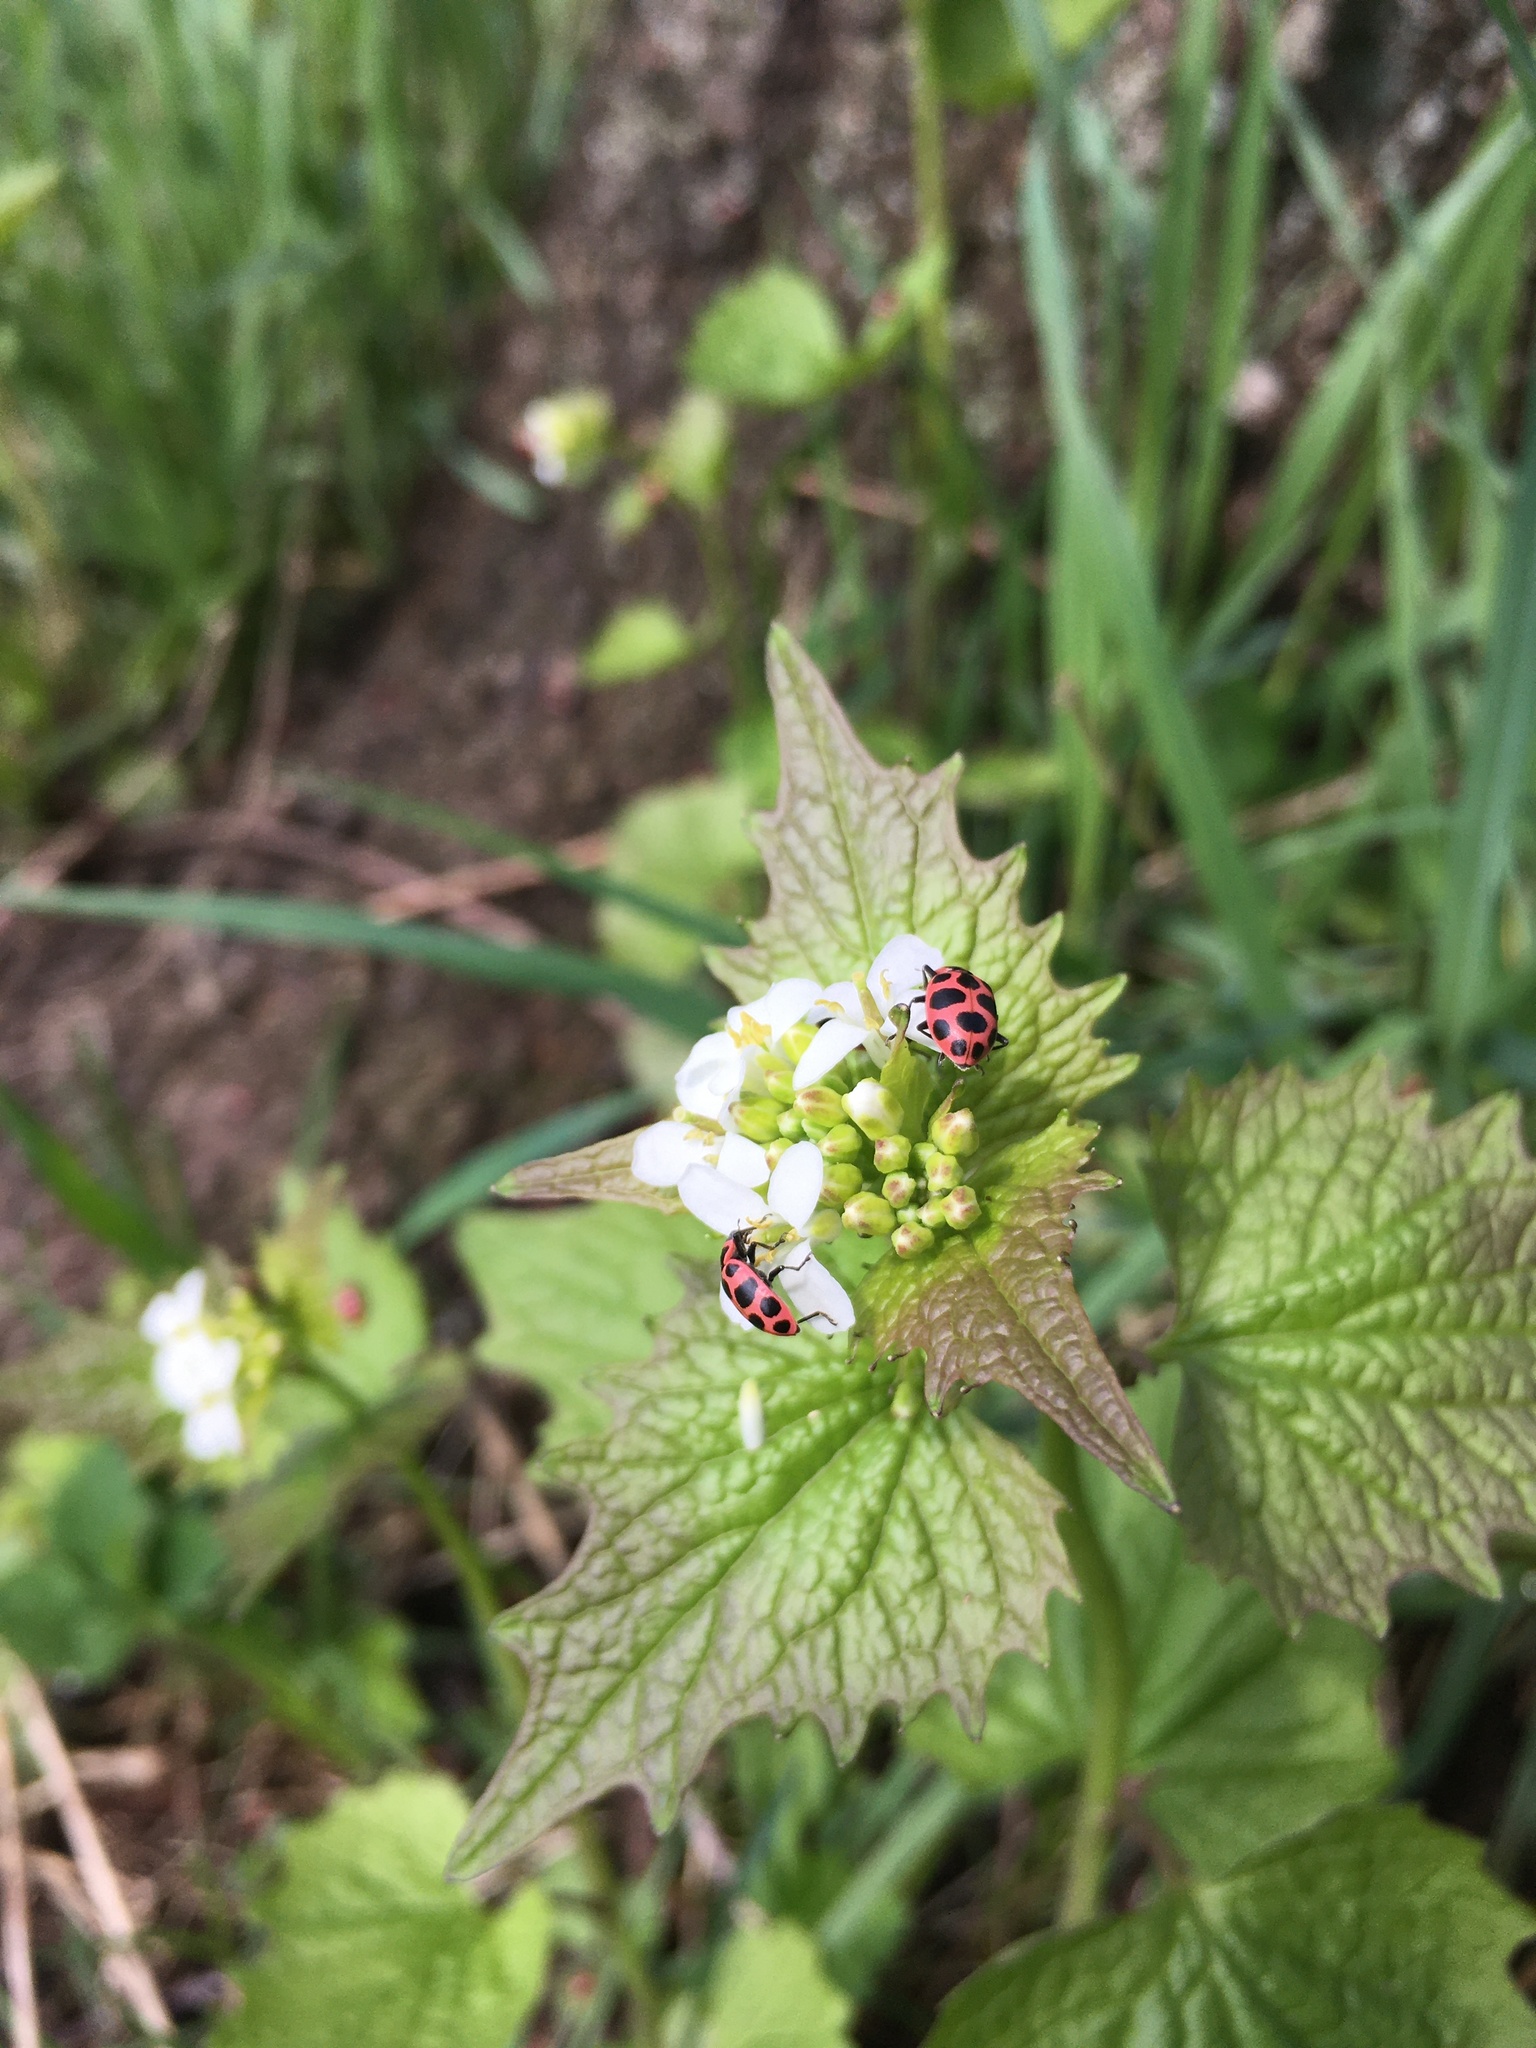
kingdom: Plantae
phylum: Tracheophyta
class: Magnoliopsida
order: Brassicales
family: Brassicaceae
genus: Alliaria
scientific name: Alliaria petiolata
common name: Garlic mustard
